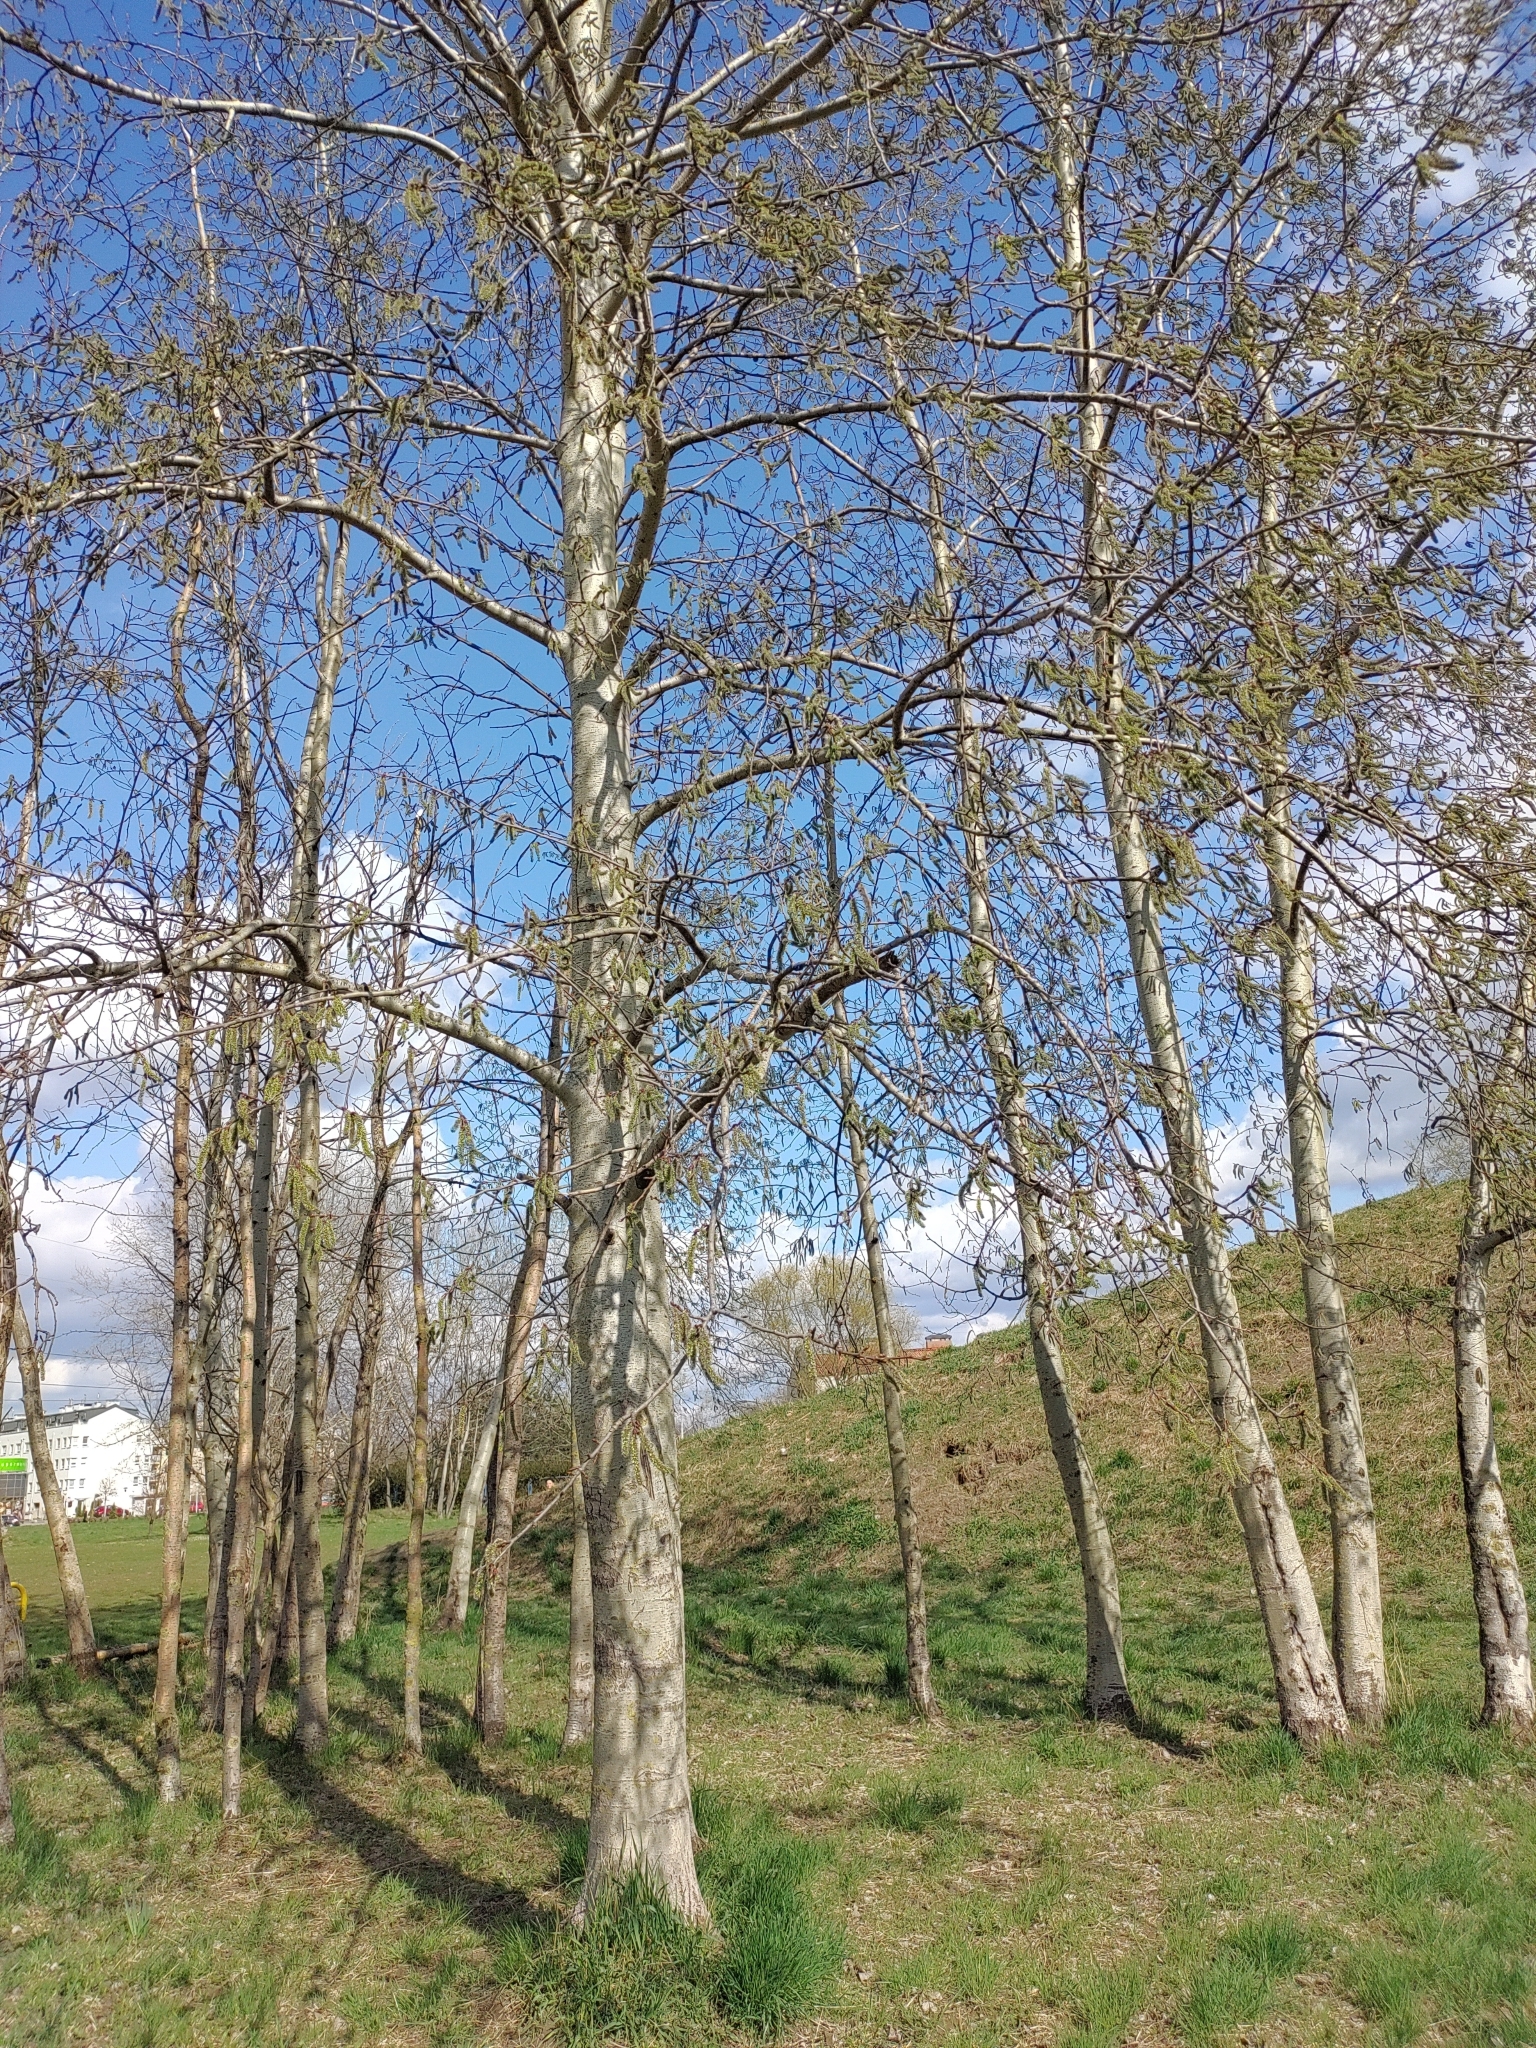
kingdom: Plantae
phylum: Tracheophyta
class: Magnoliopsida
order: Malpighiales
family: Salicaceae
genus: Populus
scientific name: Populus tremula
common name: European aspen
